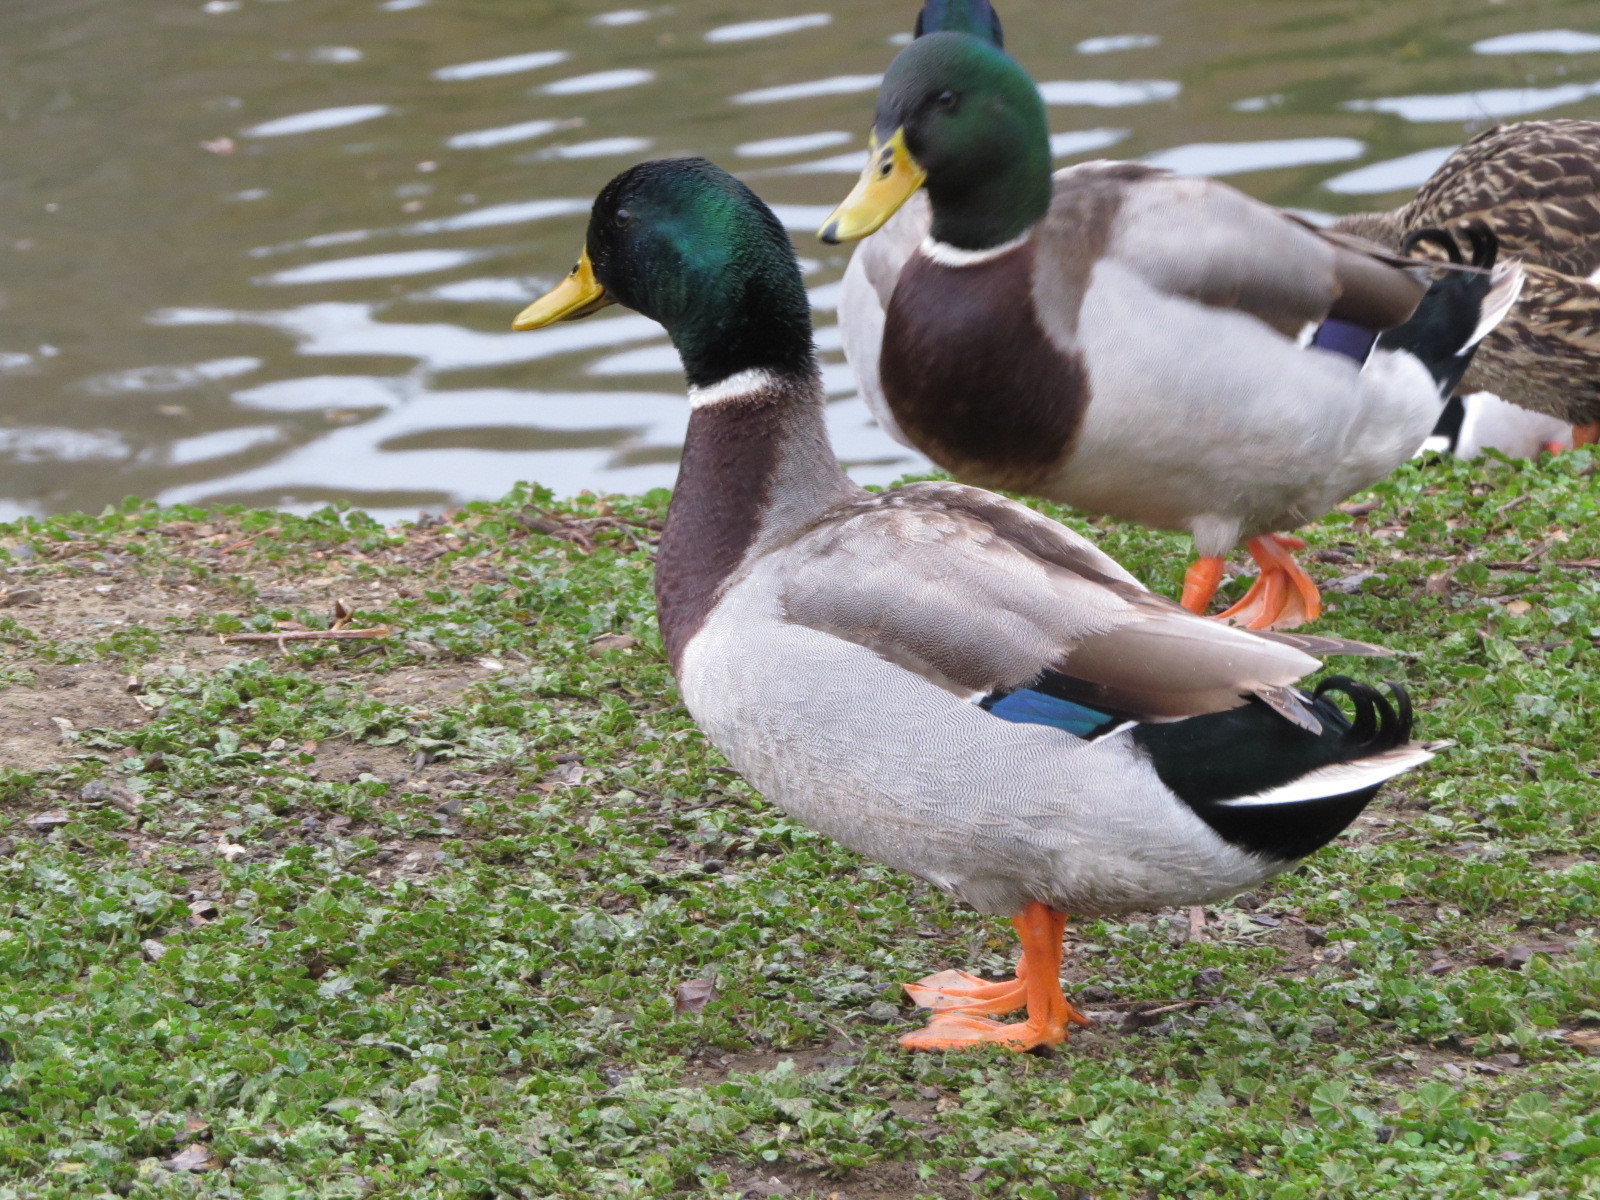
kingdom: Animalia
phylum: Chordata
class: Aves
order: Anseriformes
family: Anatidae
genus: Anas
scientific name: Anas platyrhynchos
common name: Mallard
